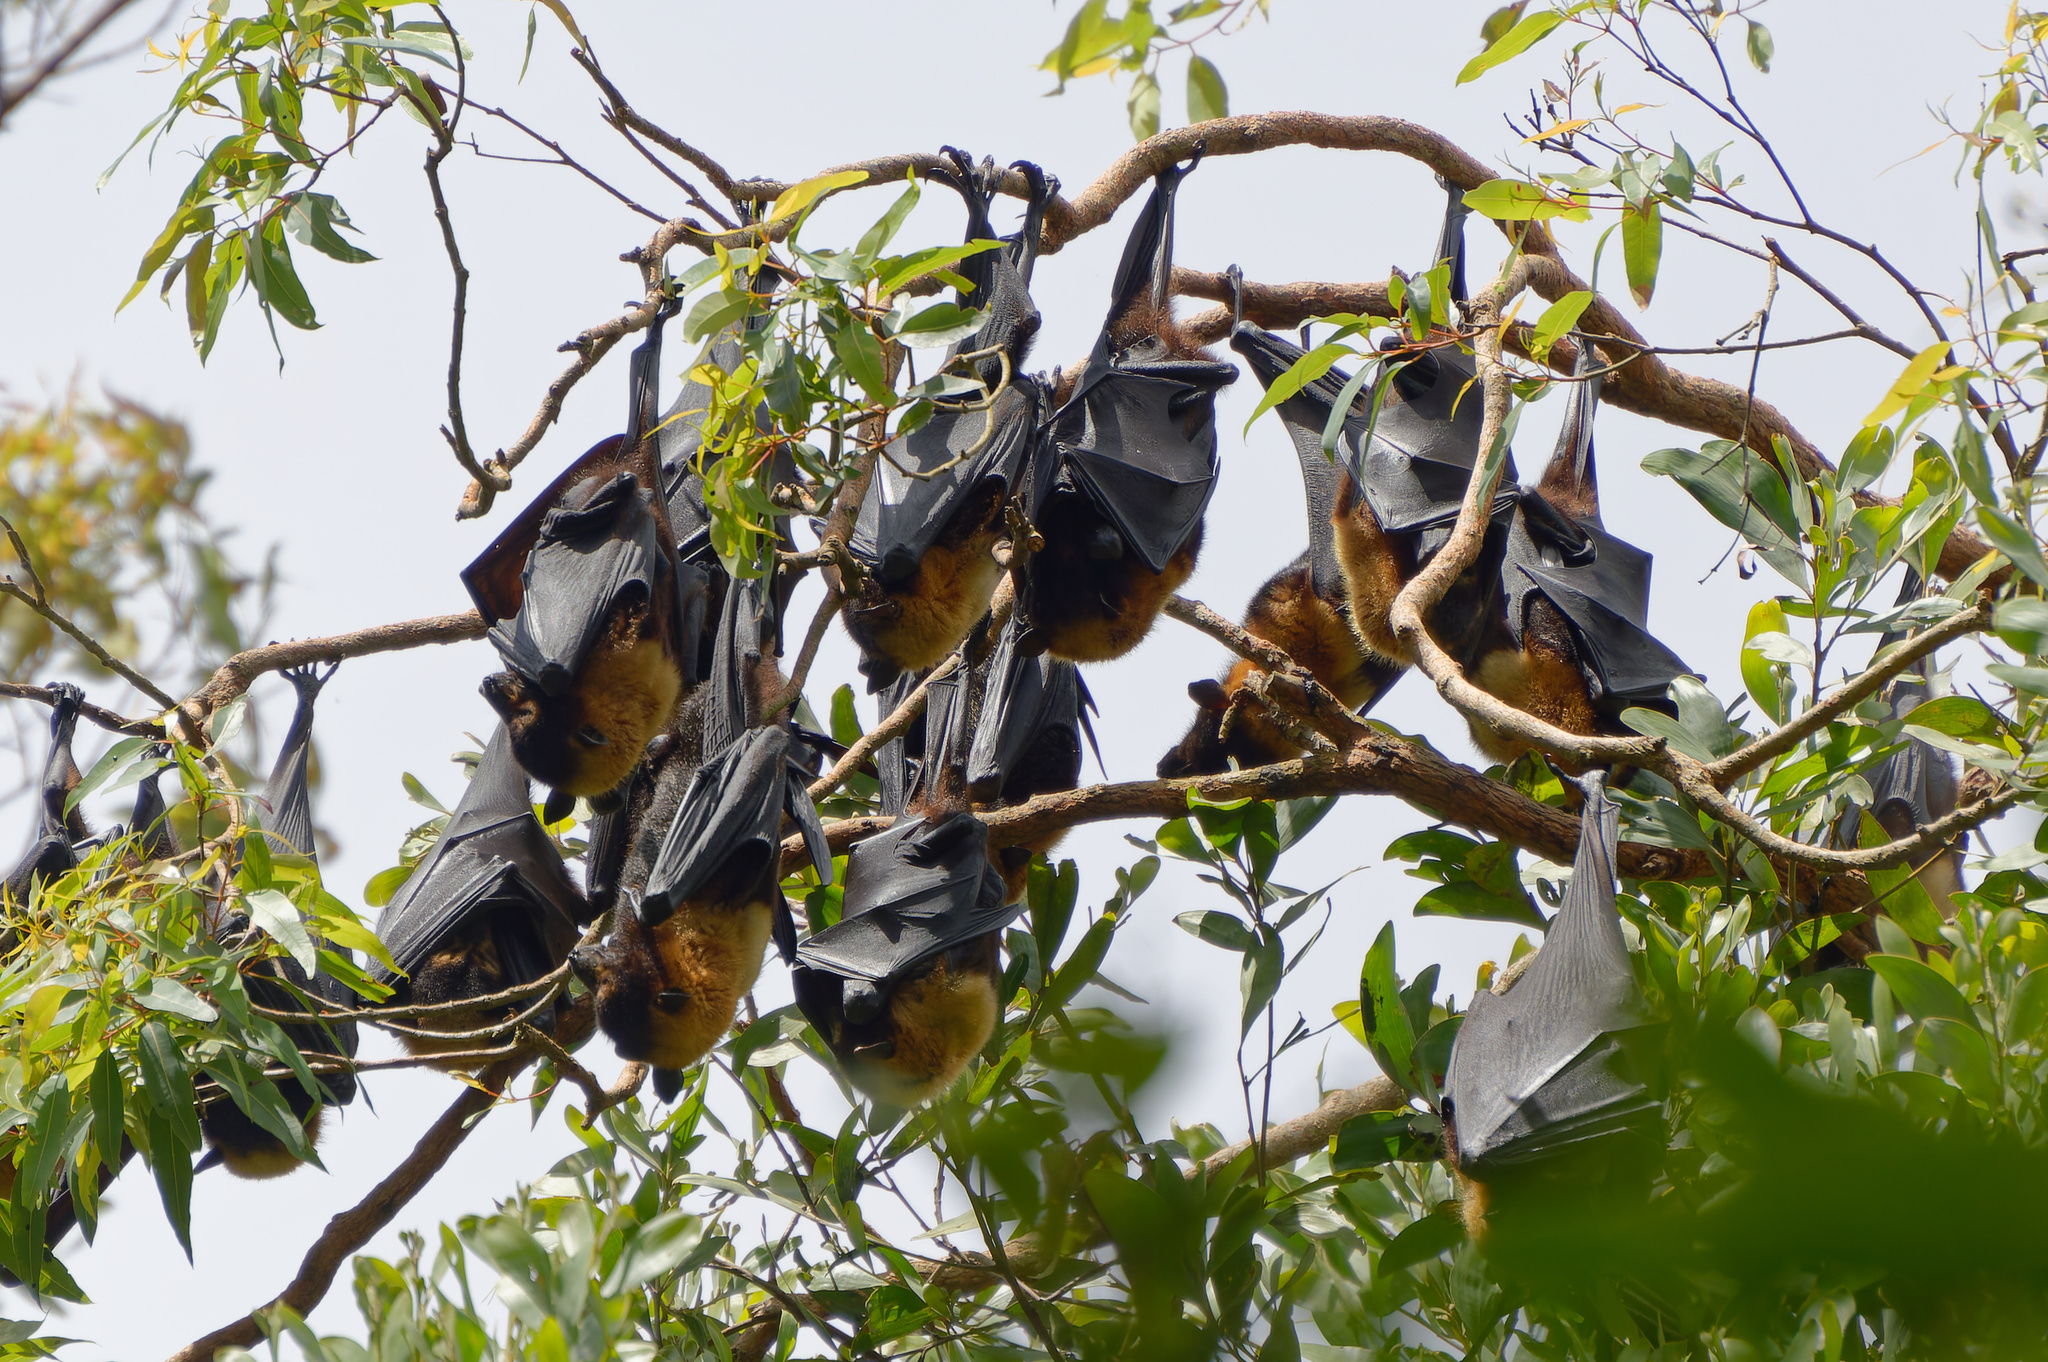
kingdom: Animalia
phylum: Chordata
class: Mammalia
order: Chiroptera
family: Pteropodidae
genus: Pteropus
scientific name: Pteropus conspicillatus
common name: Spectacled flying fox
